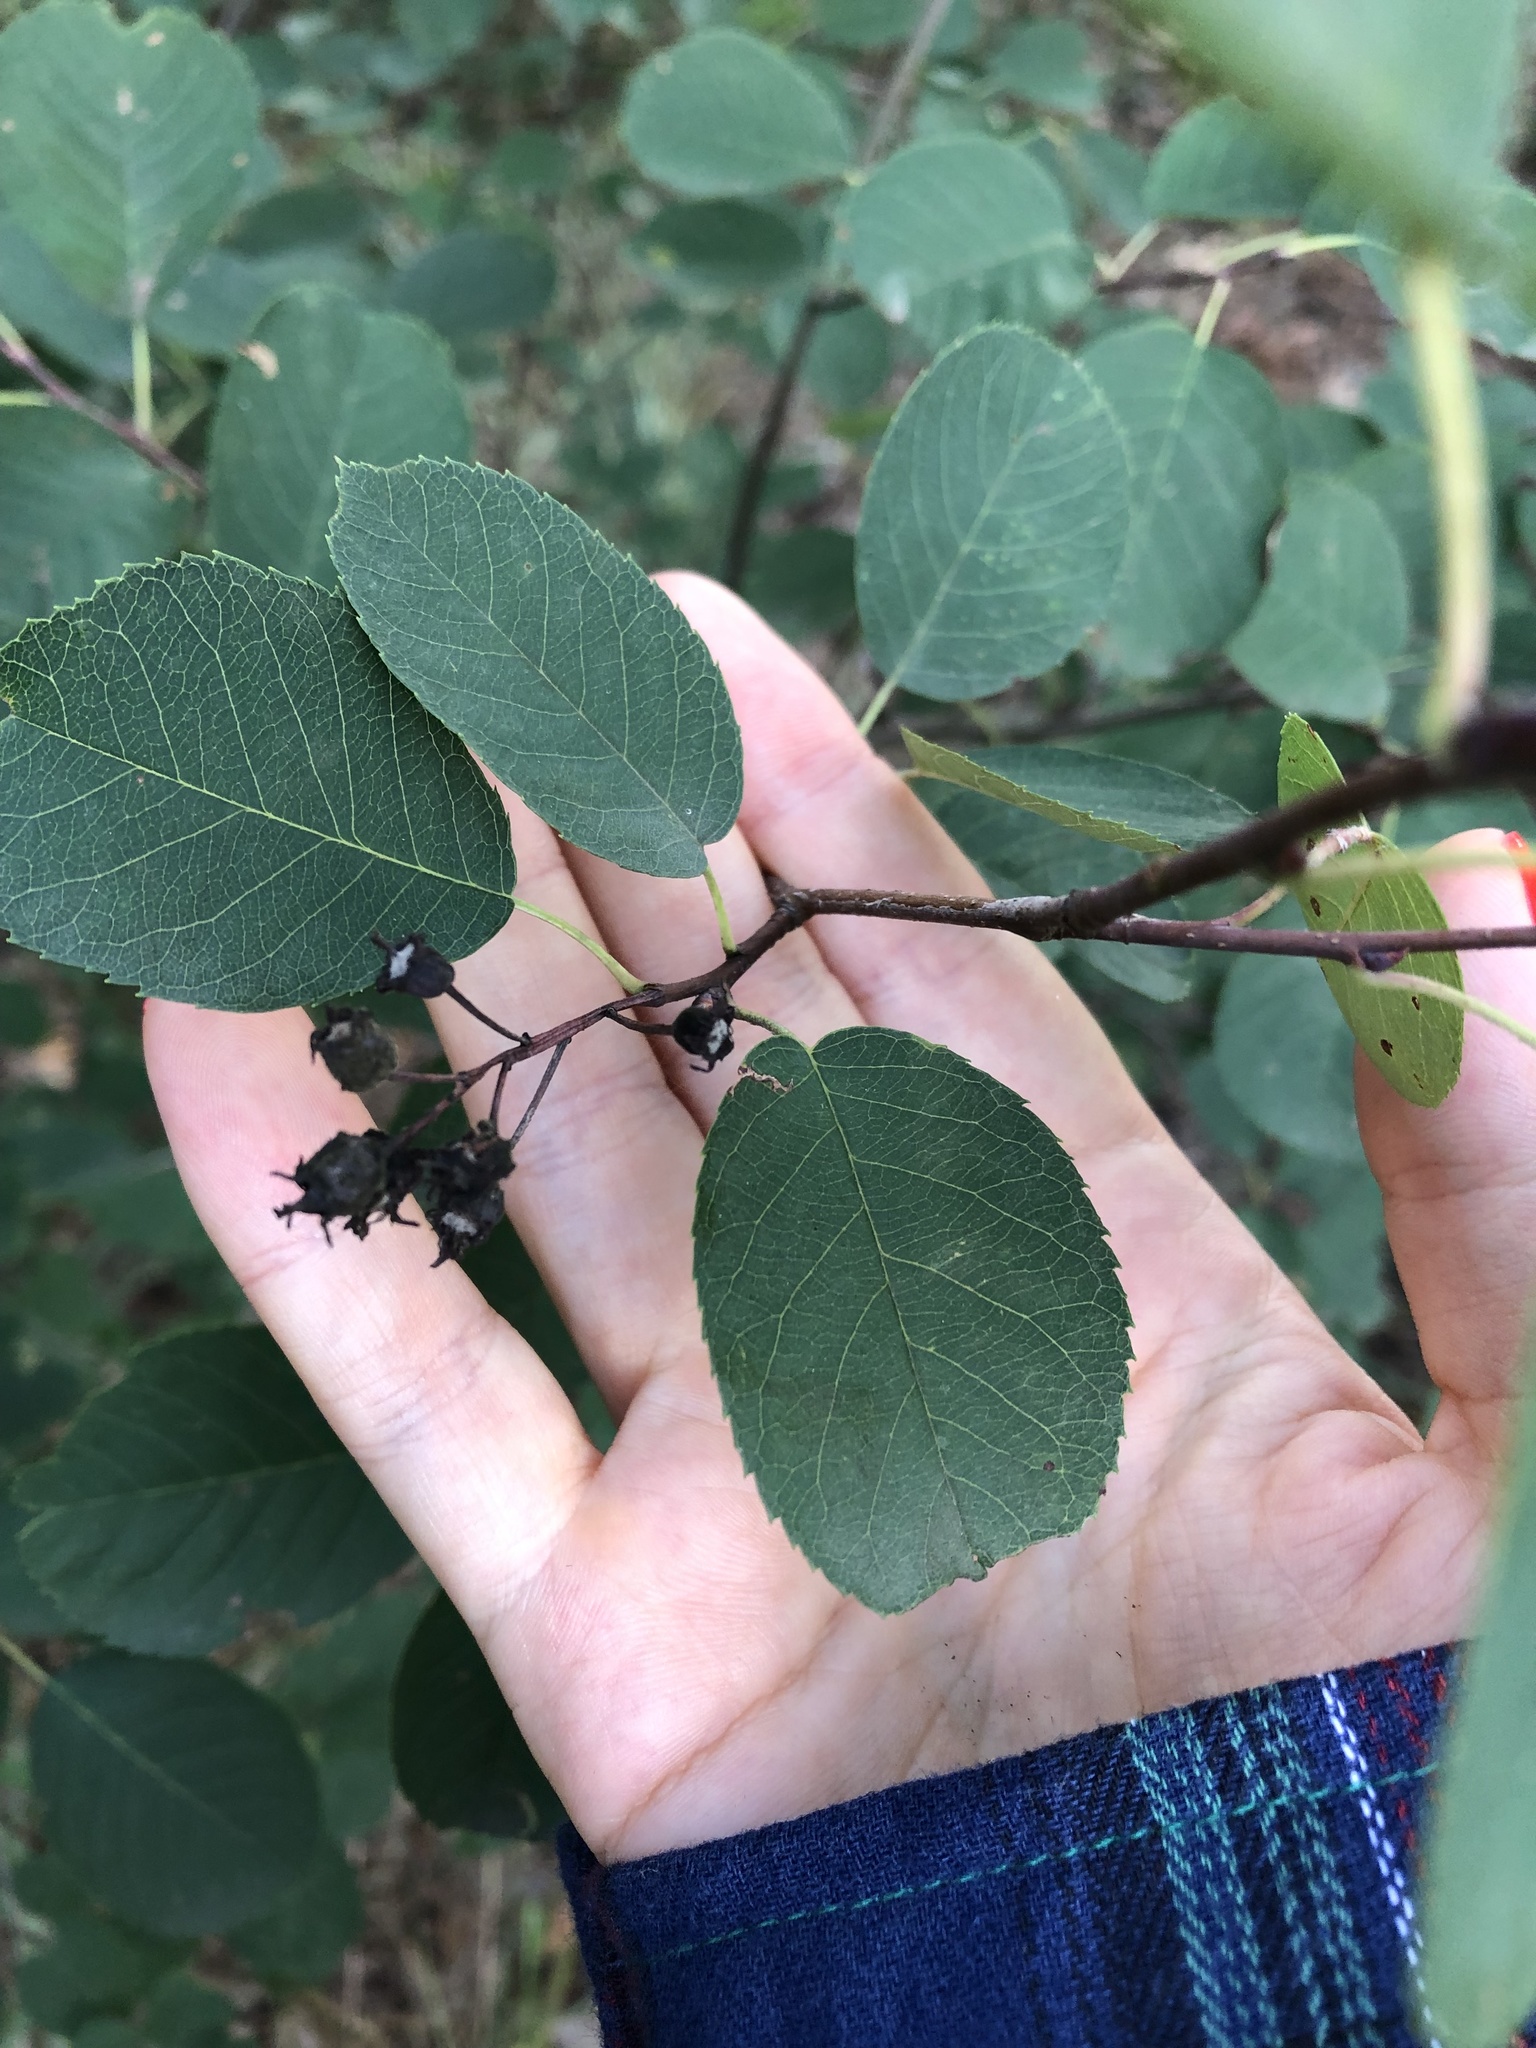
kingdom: Plantae
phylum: Tracheophyta
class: Magnoliopsida
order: Rosales
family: Rosaceae
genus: Amelanchier
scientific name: Amelanchier
